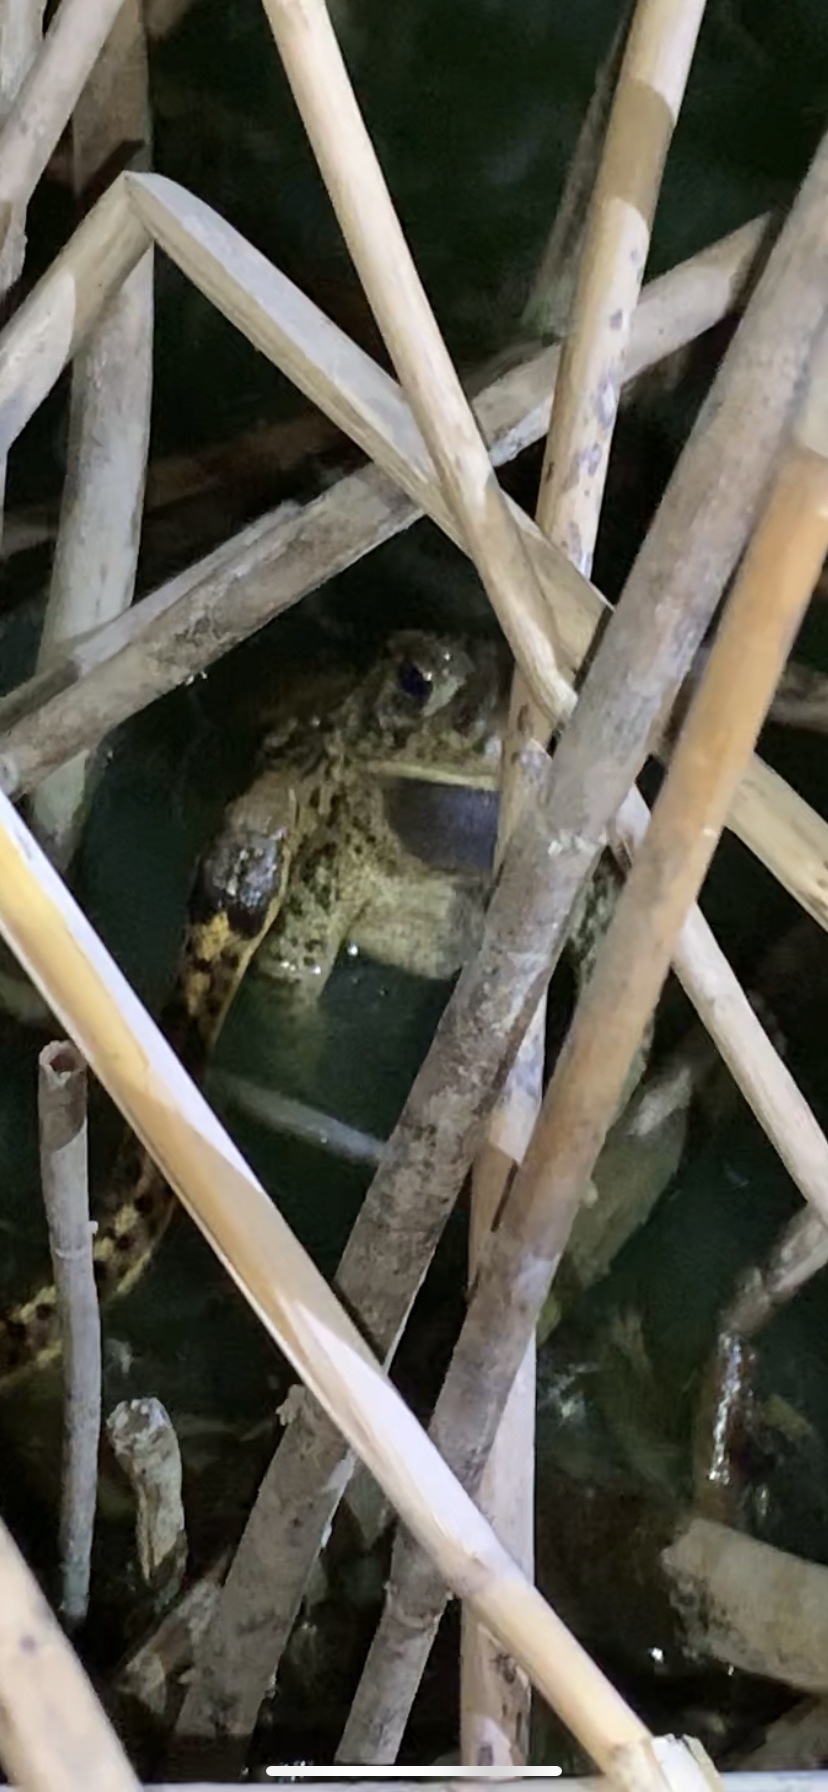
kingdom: Animalia
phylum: Chordata
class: Amphibia
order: Anura
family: Bufonidae
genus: Anaxyrus
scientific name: Anaxyrus woodhousii
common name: Woodhouse's toad
